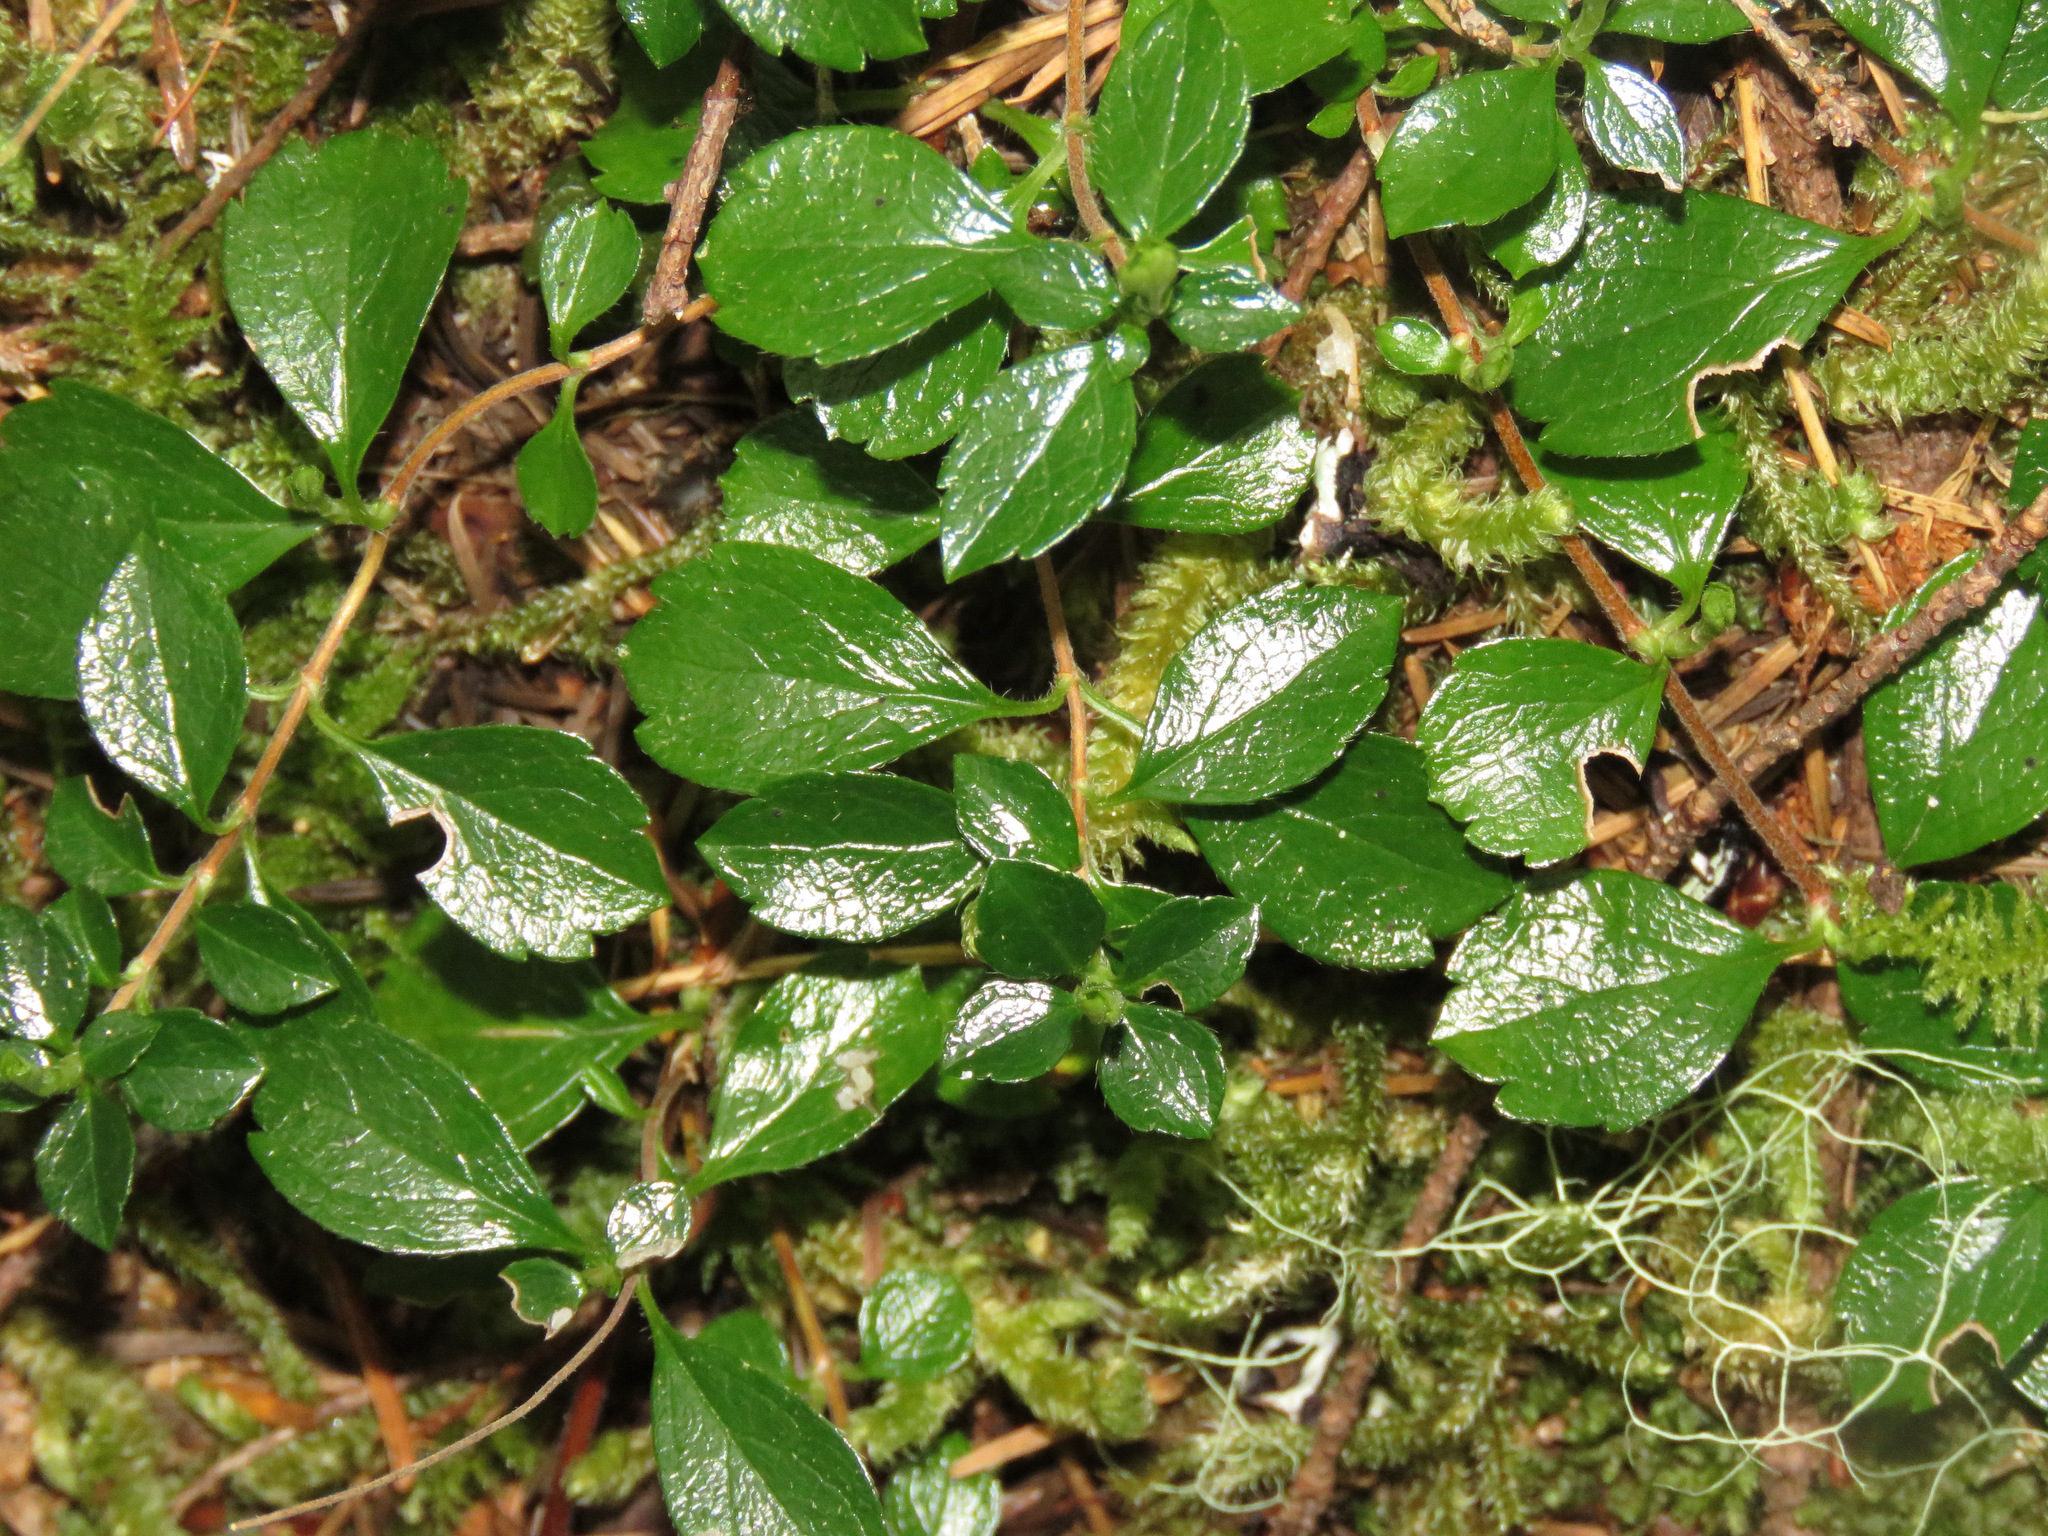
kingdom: Plantae
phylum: Tracheophyta
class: Magnoliopsida
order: Dipsacales
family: Caprifoliaceae
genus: Linnaea
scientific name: Linnaea borealis
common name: Twinflower
